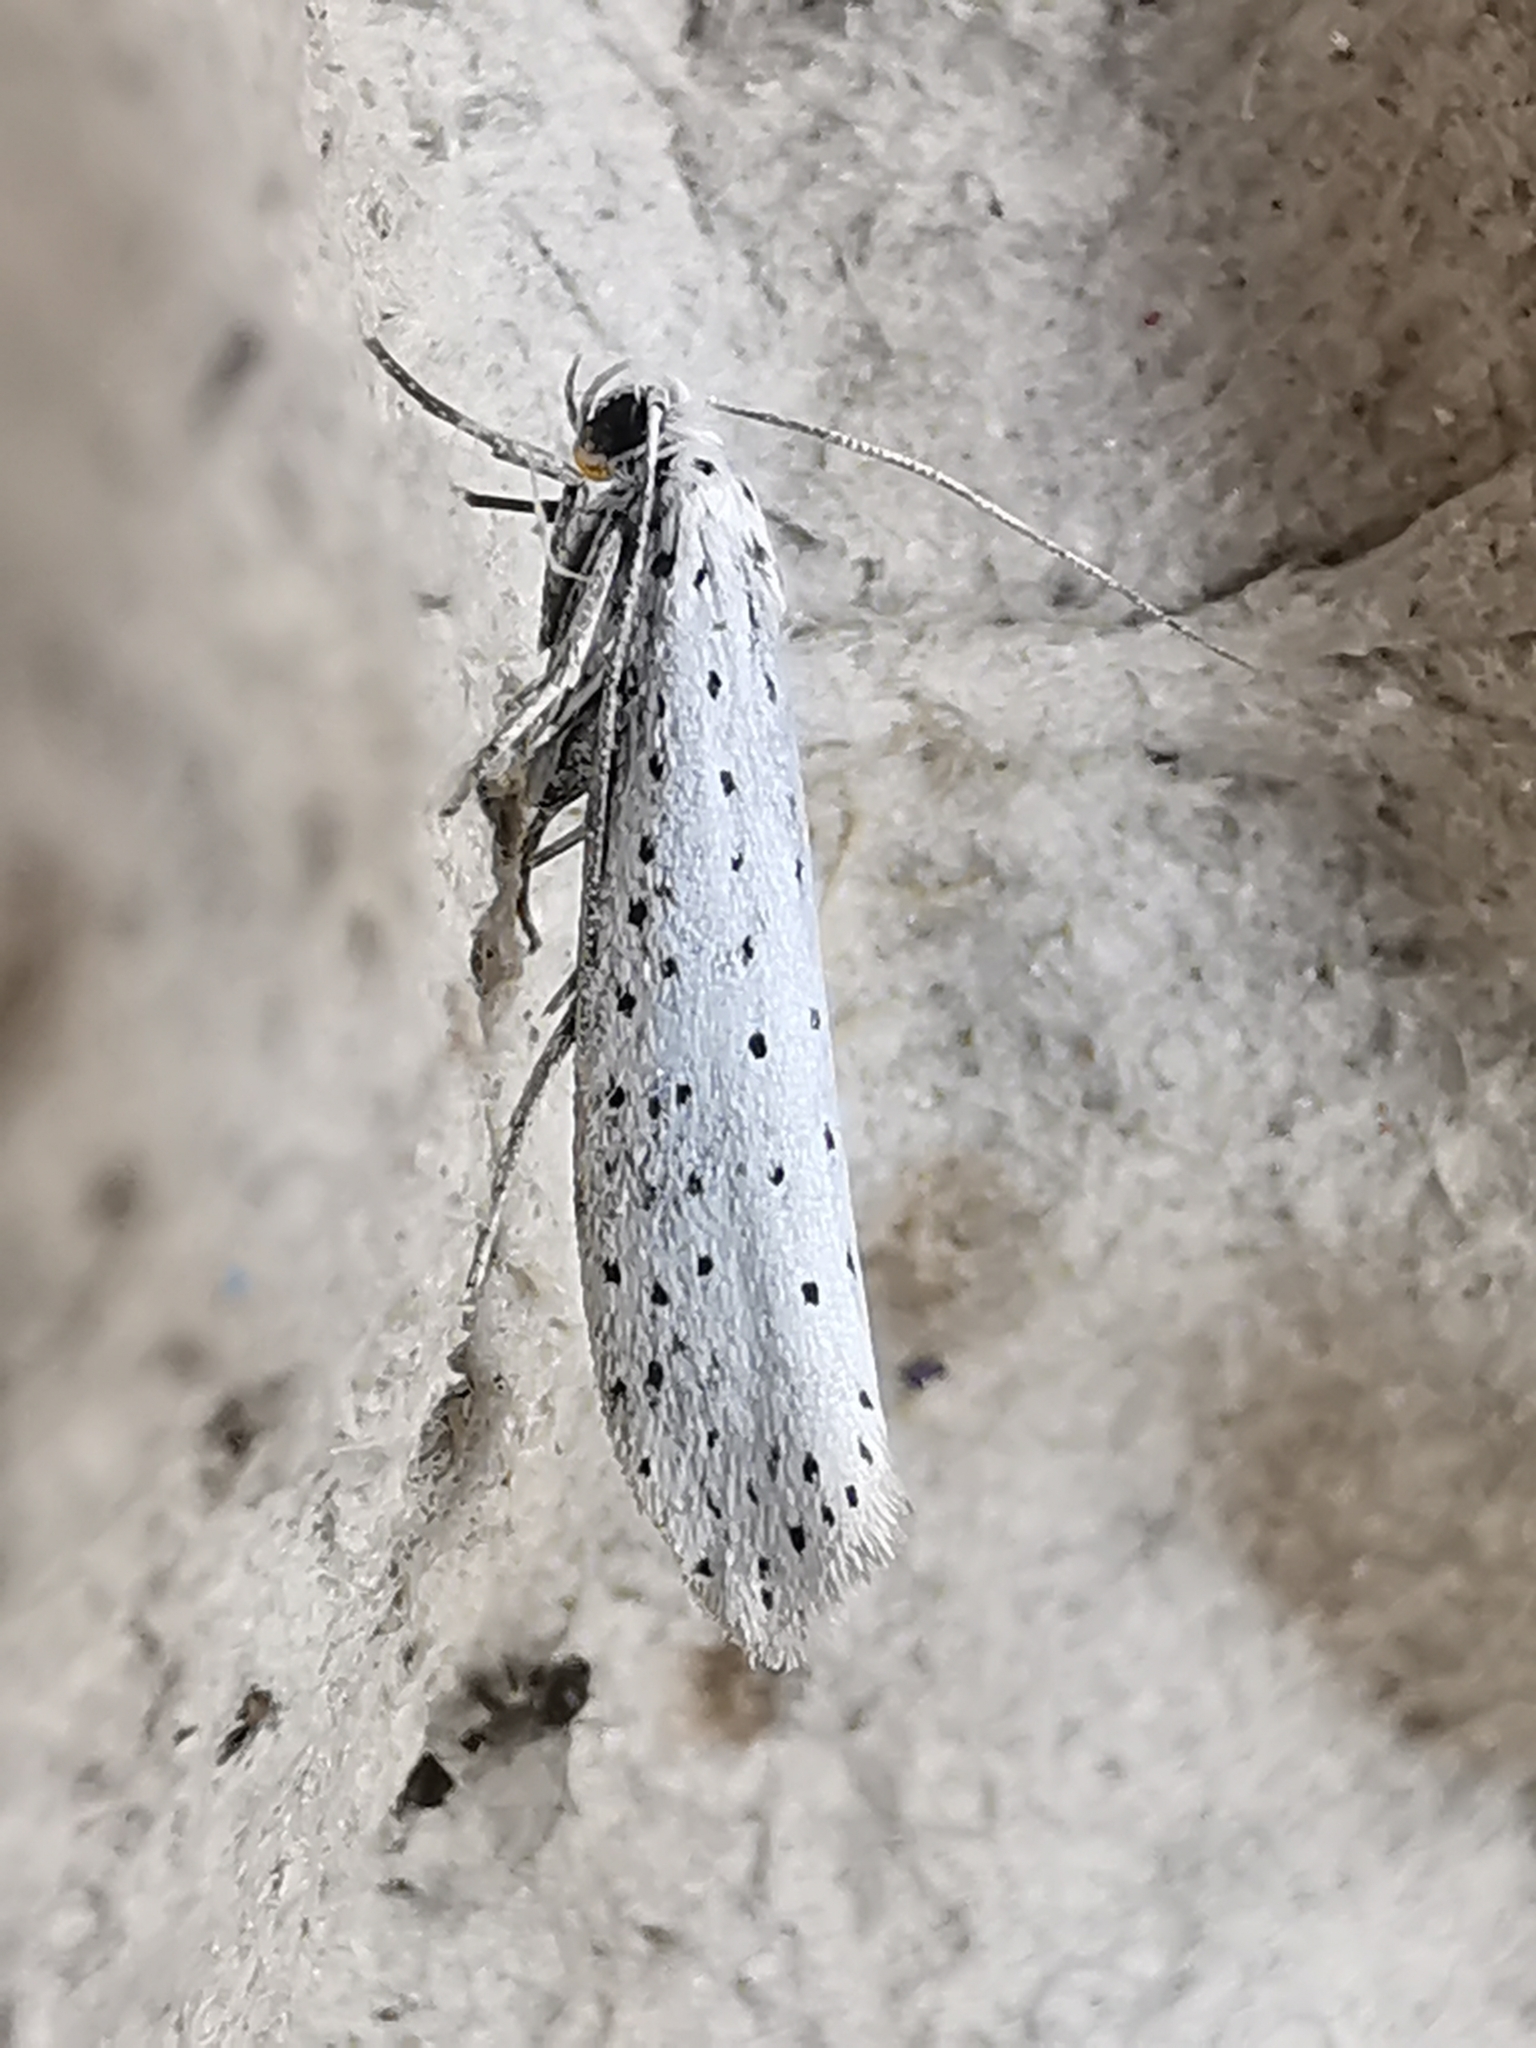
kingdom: Animalia
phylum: Arthropoda
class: Insecta
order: Lepidoptera
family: Yponomeutidae
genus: Yponomeuta
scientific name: Yponomeuta evonymella
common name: Bird-cherry ermine
